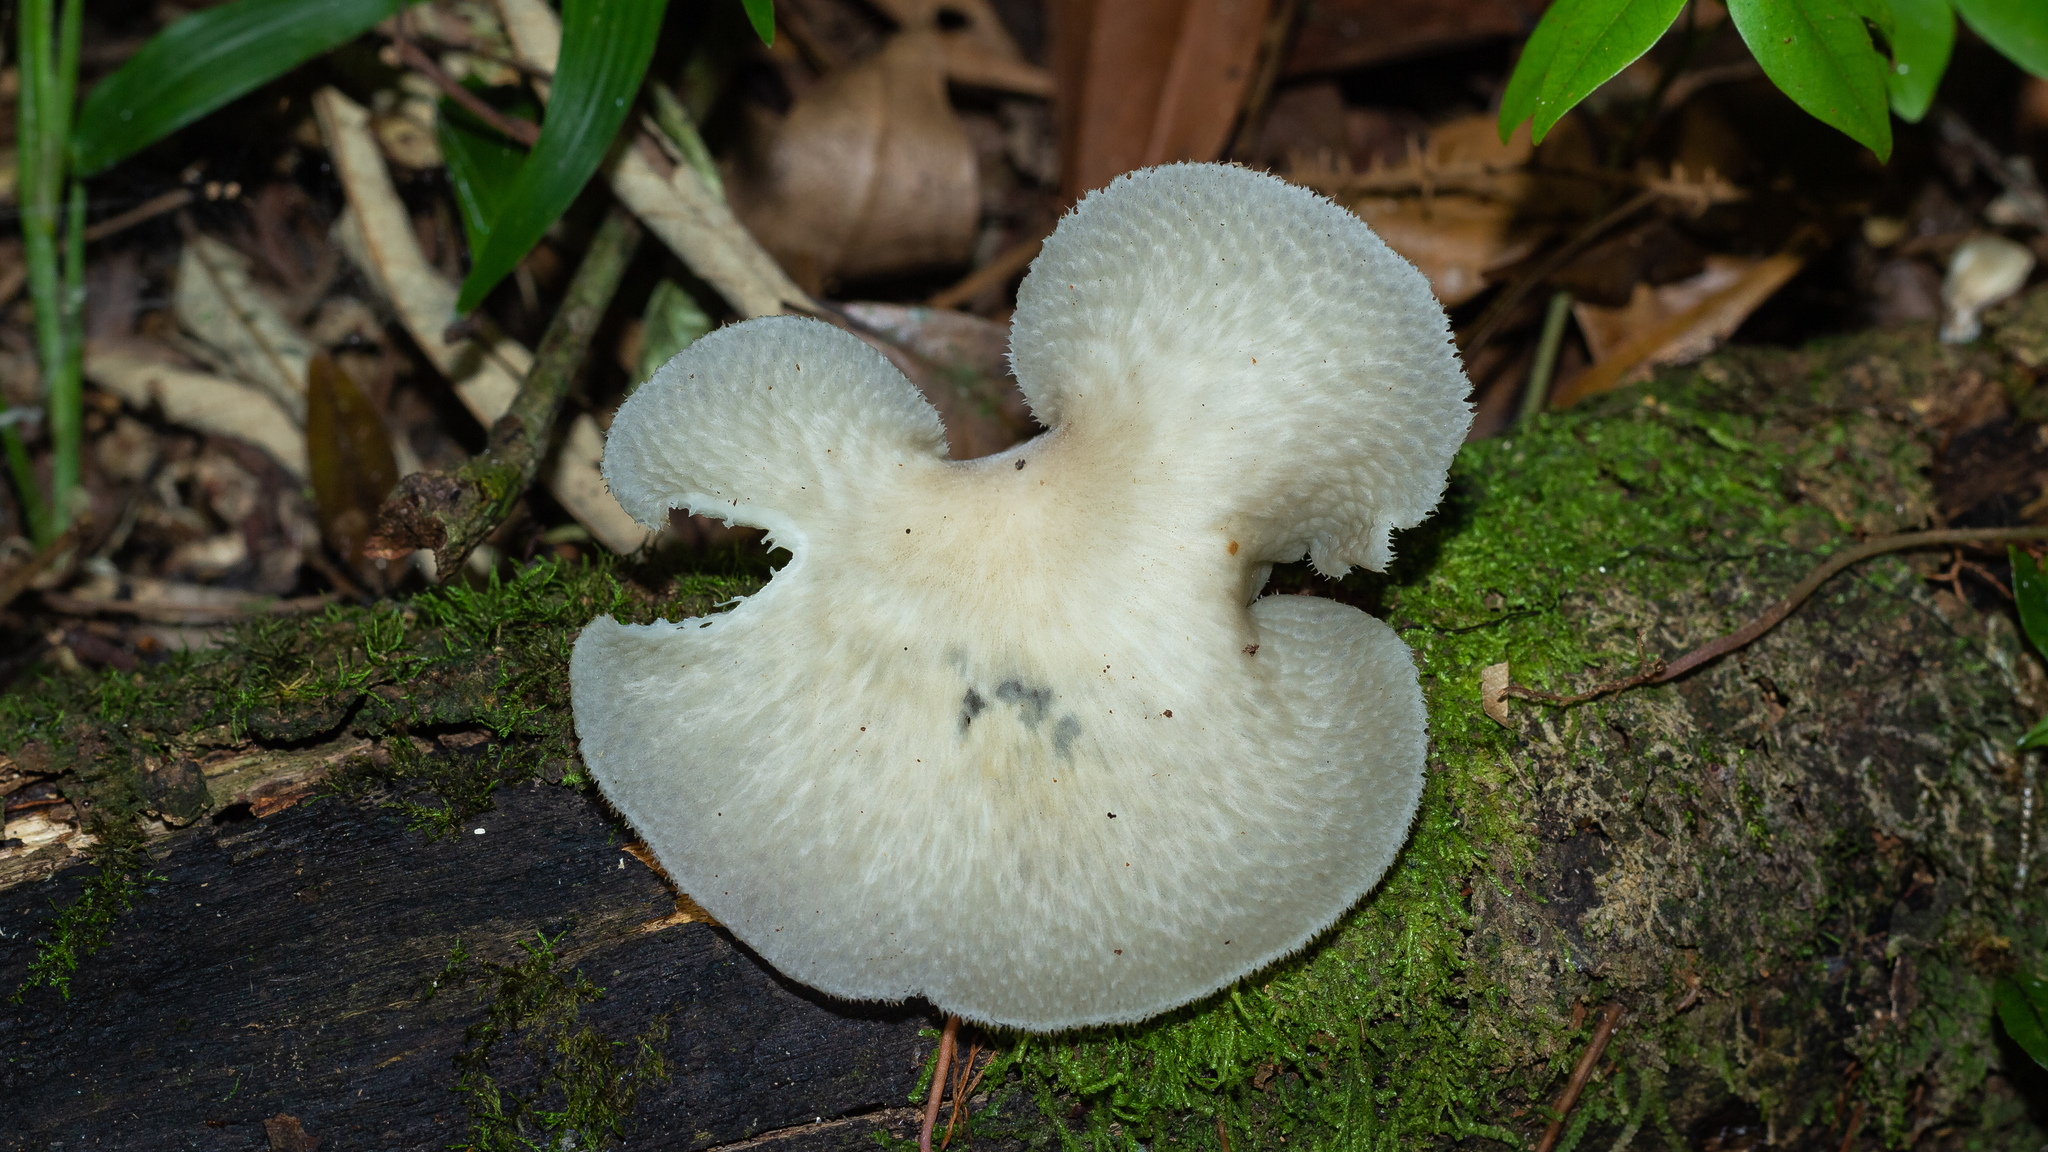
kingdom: Fungi
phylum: Basidiomycota
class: Agaricomycetes
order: Polyporales
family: Polyporaceae
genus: Favolus
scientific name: Favolus rugulosus
